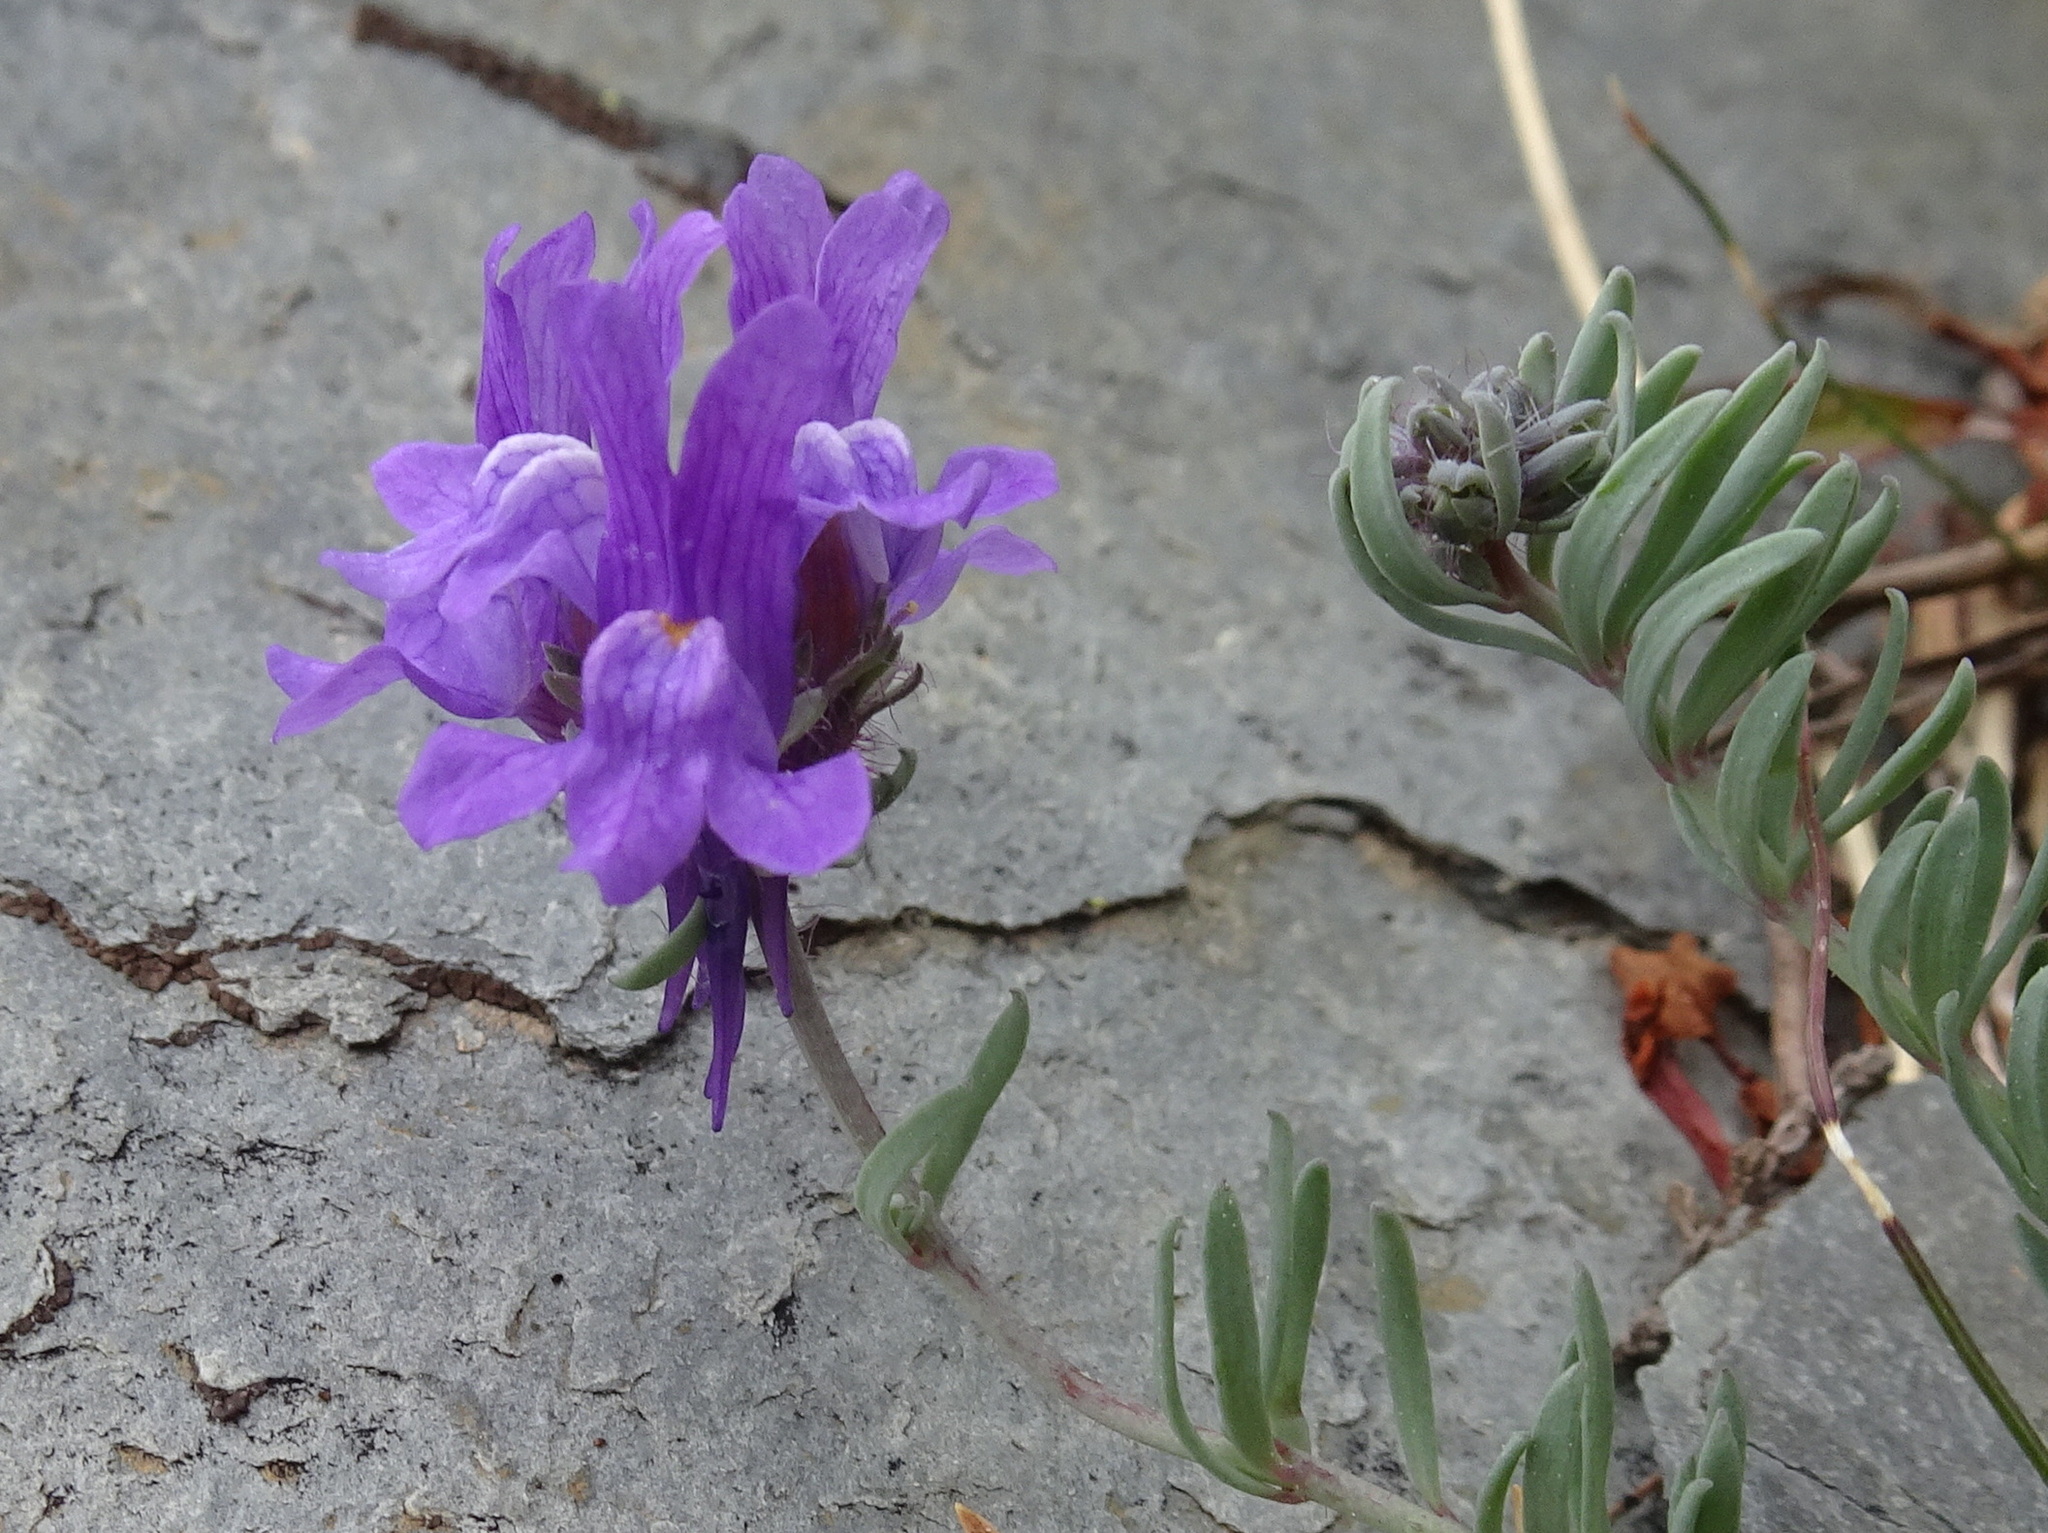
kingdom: Plantae
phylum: Tracheophyta
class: Magnoliopsida
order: Lamiales
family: Plantaginaceae
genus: Linaria
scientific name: Linaria alpina
